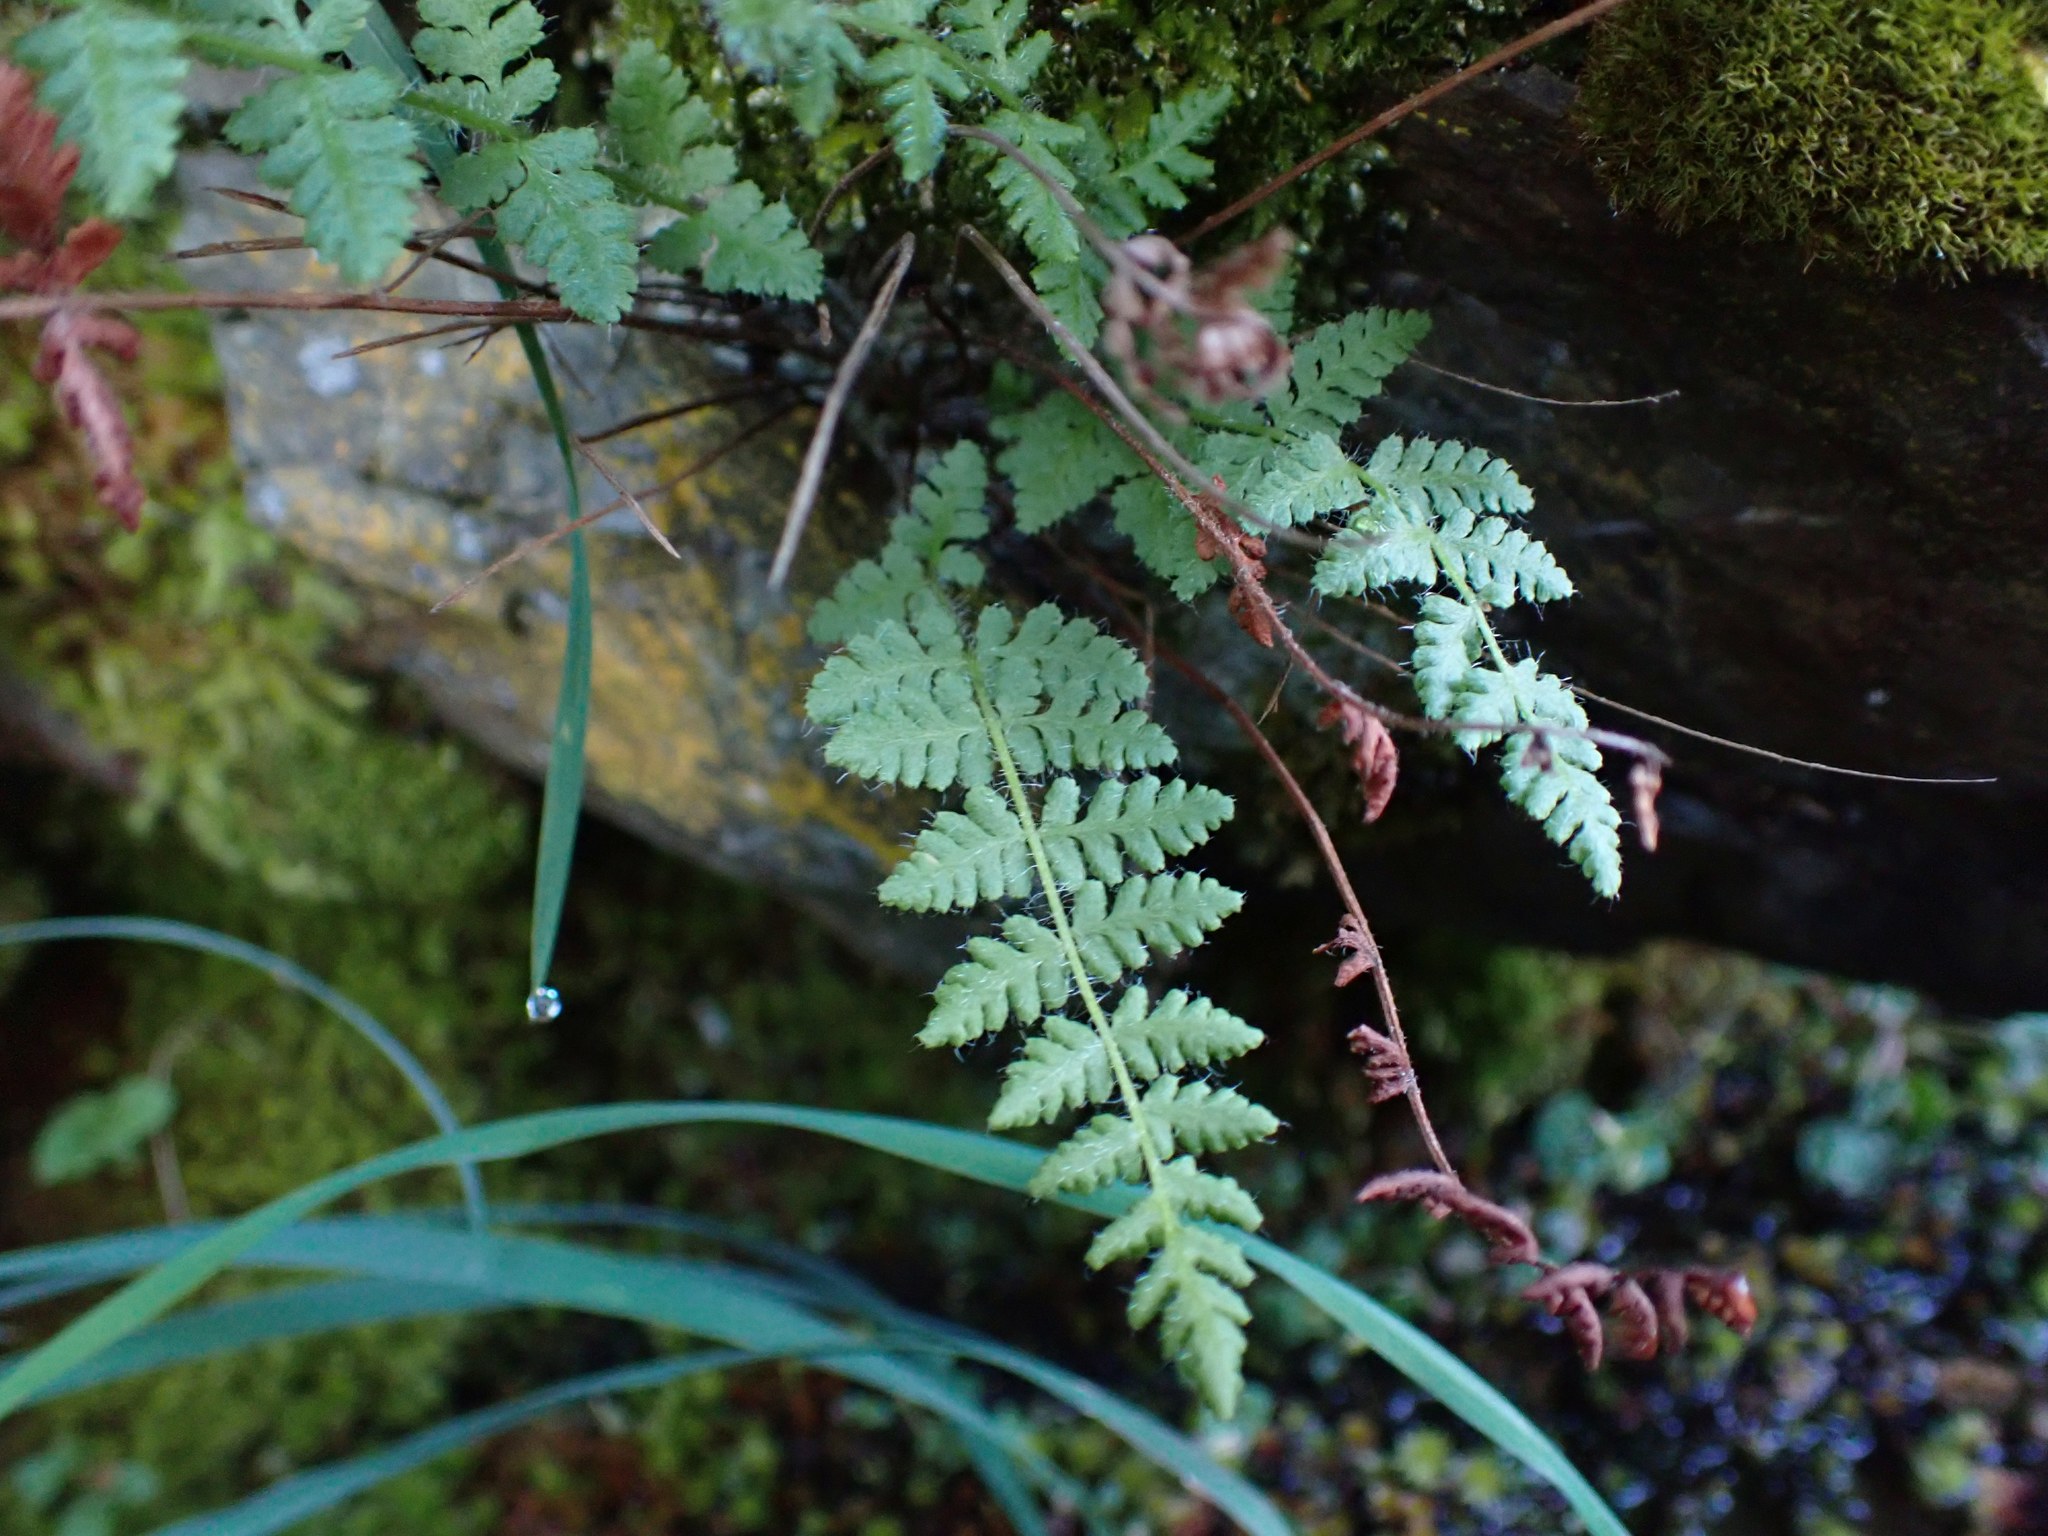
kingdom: Plantae
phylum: Tracheophyta
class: Polypodiopsida
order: Polypodiales
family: Woodsiaceae
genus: Physematium
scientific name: Physematium scopulinum
